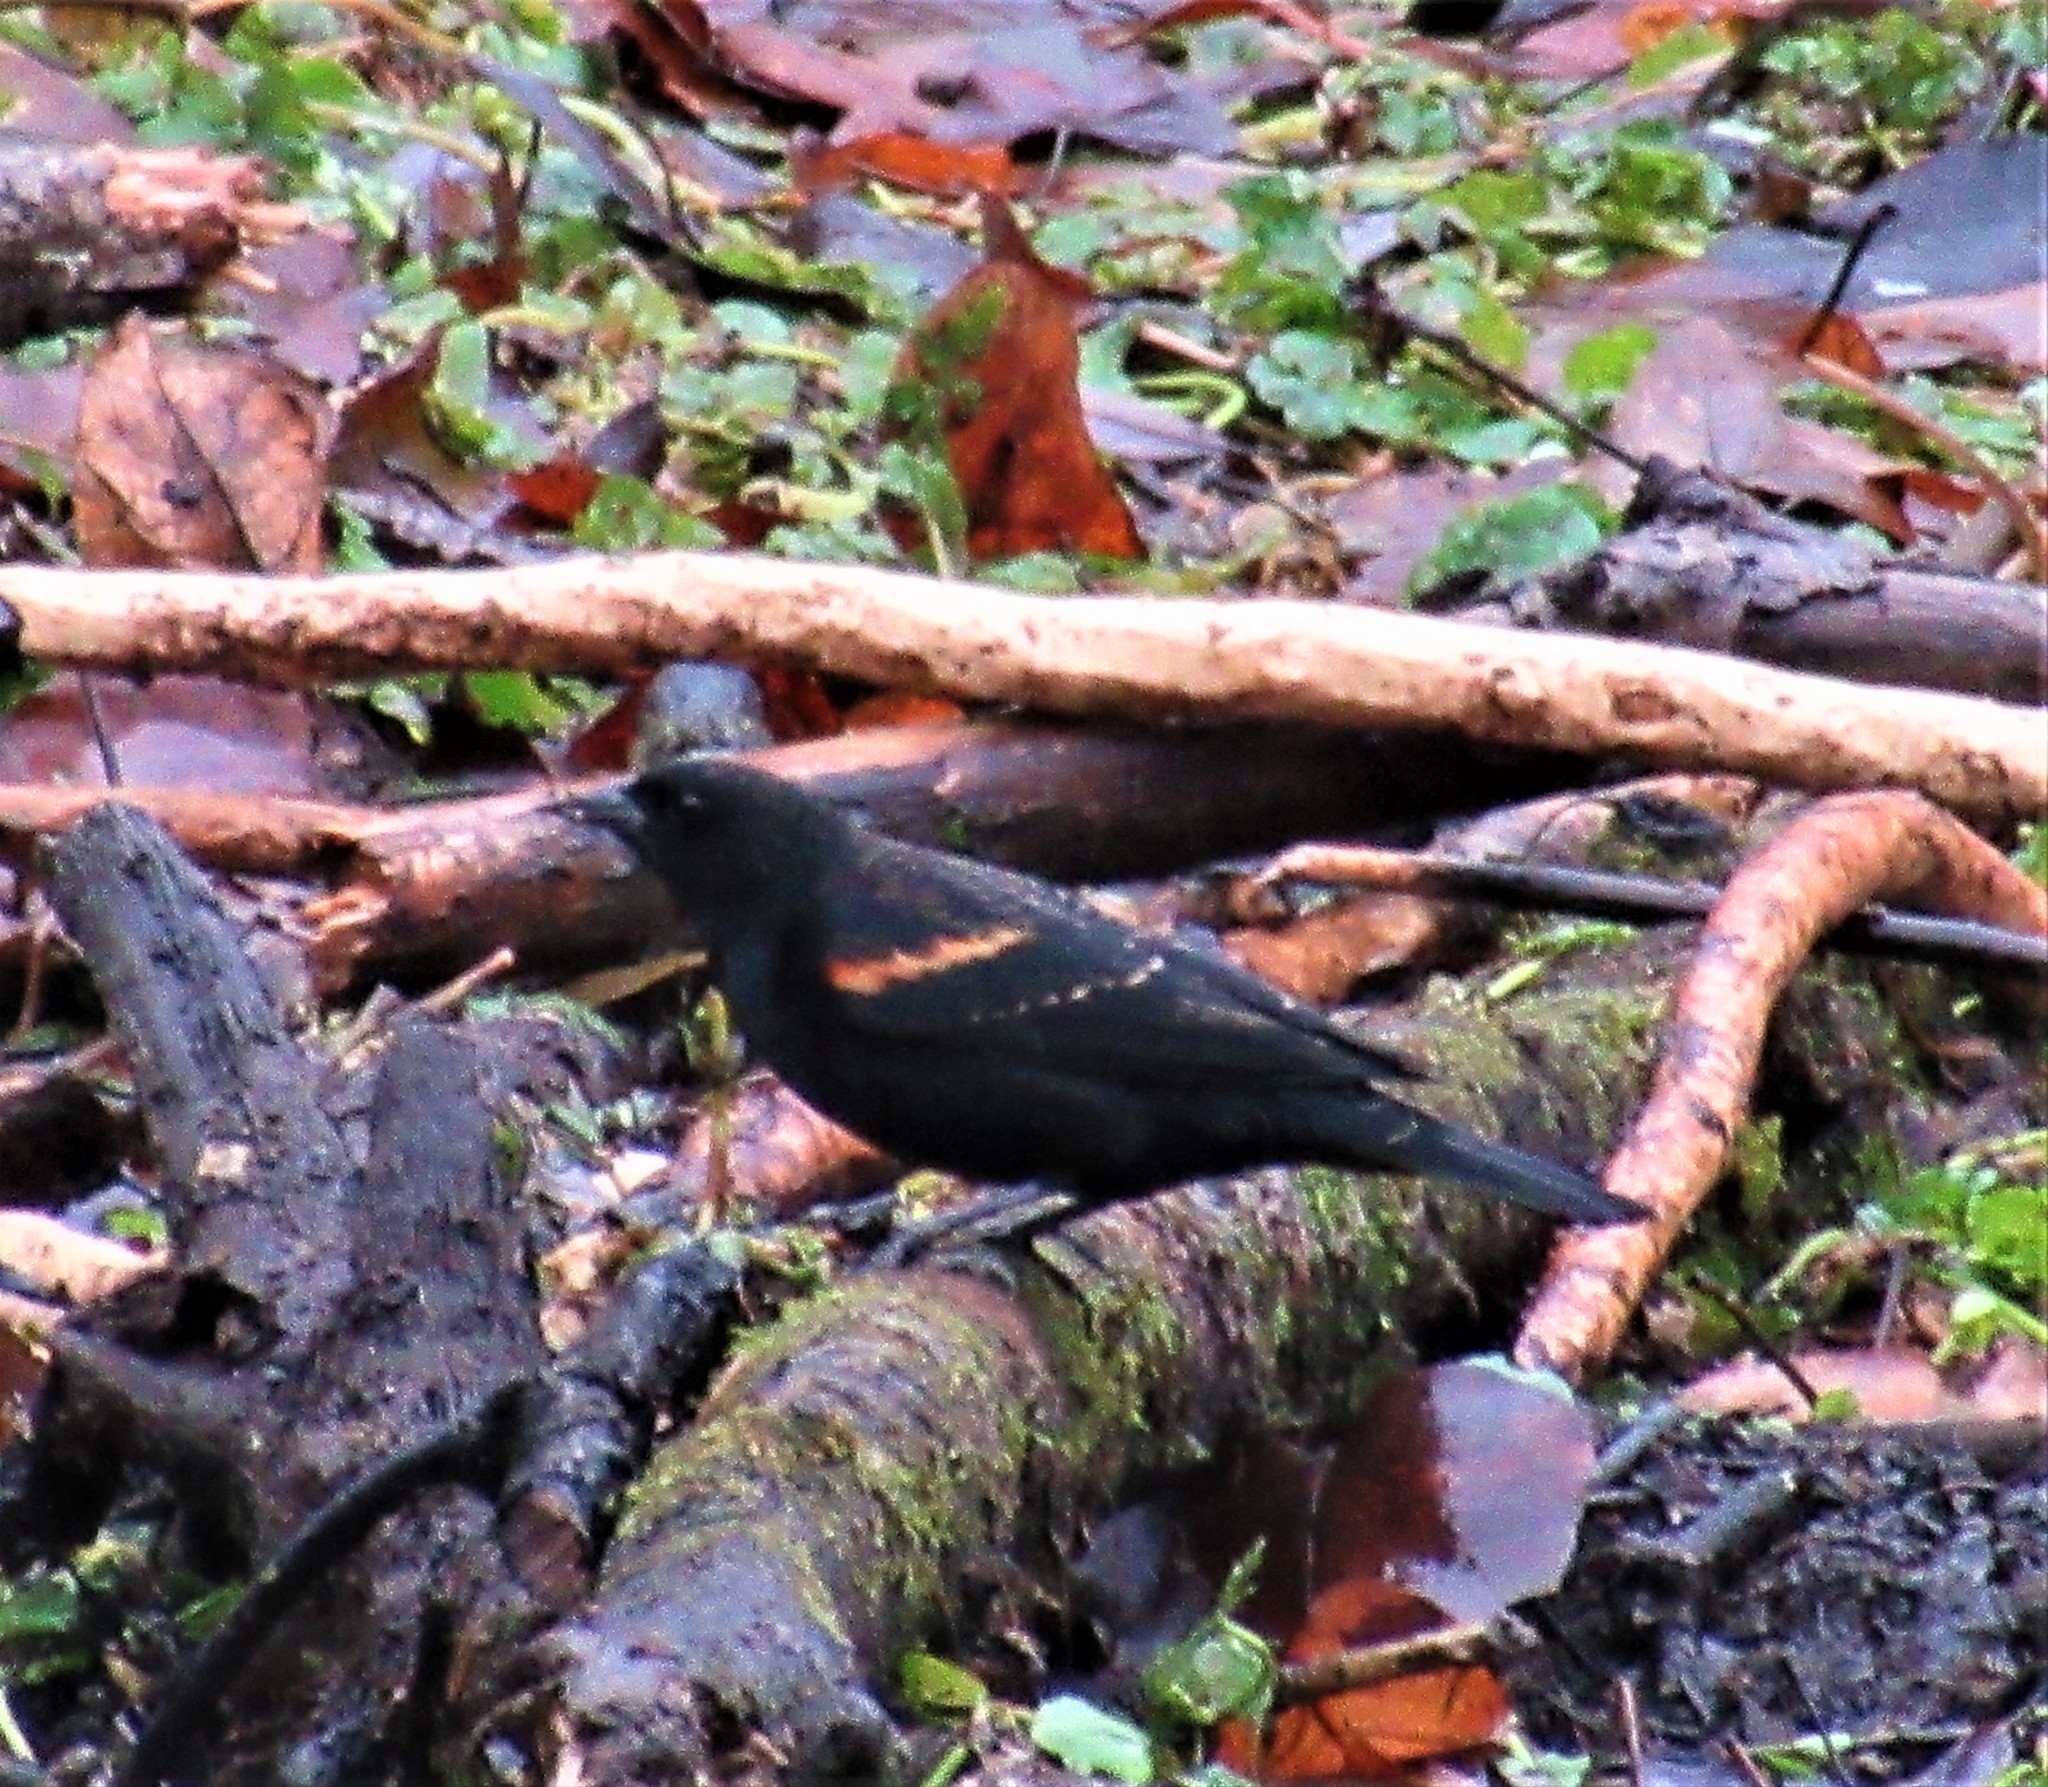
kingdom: Animalia
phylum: Chordata
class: Aves
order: Passeriformes
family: Icteridae
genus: Agelaius
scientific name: Agelaius phoeniceus
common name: Red-winged blackbird
